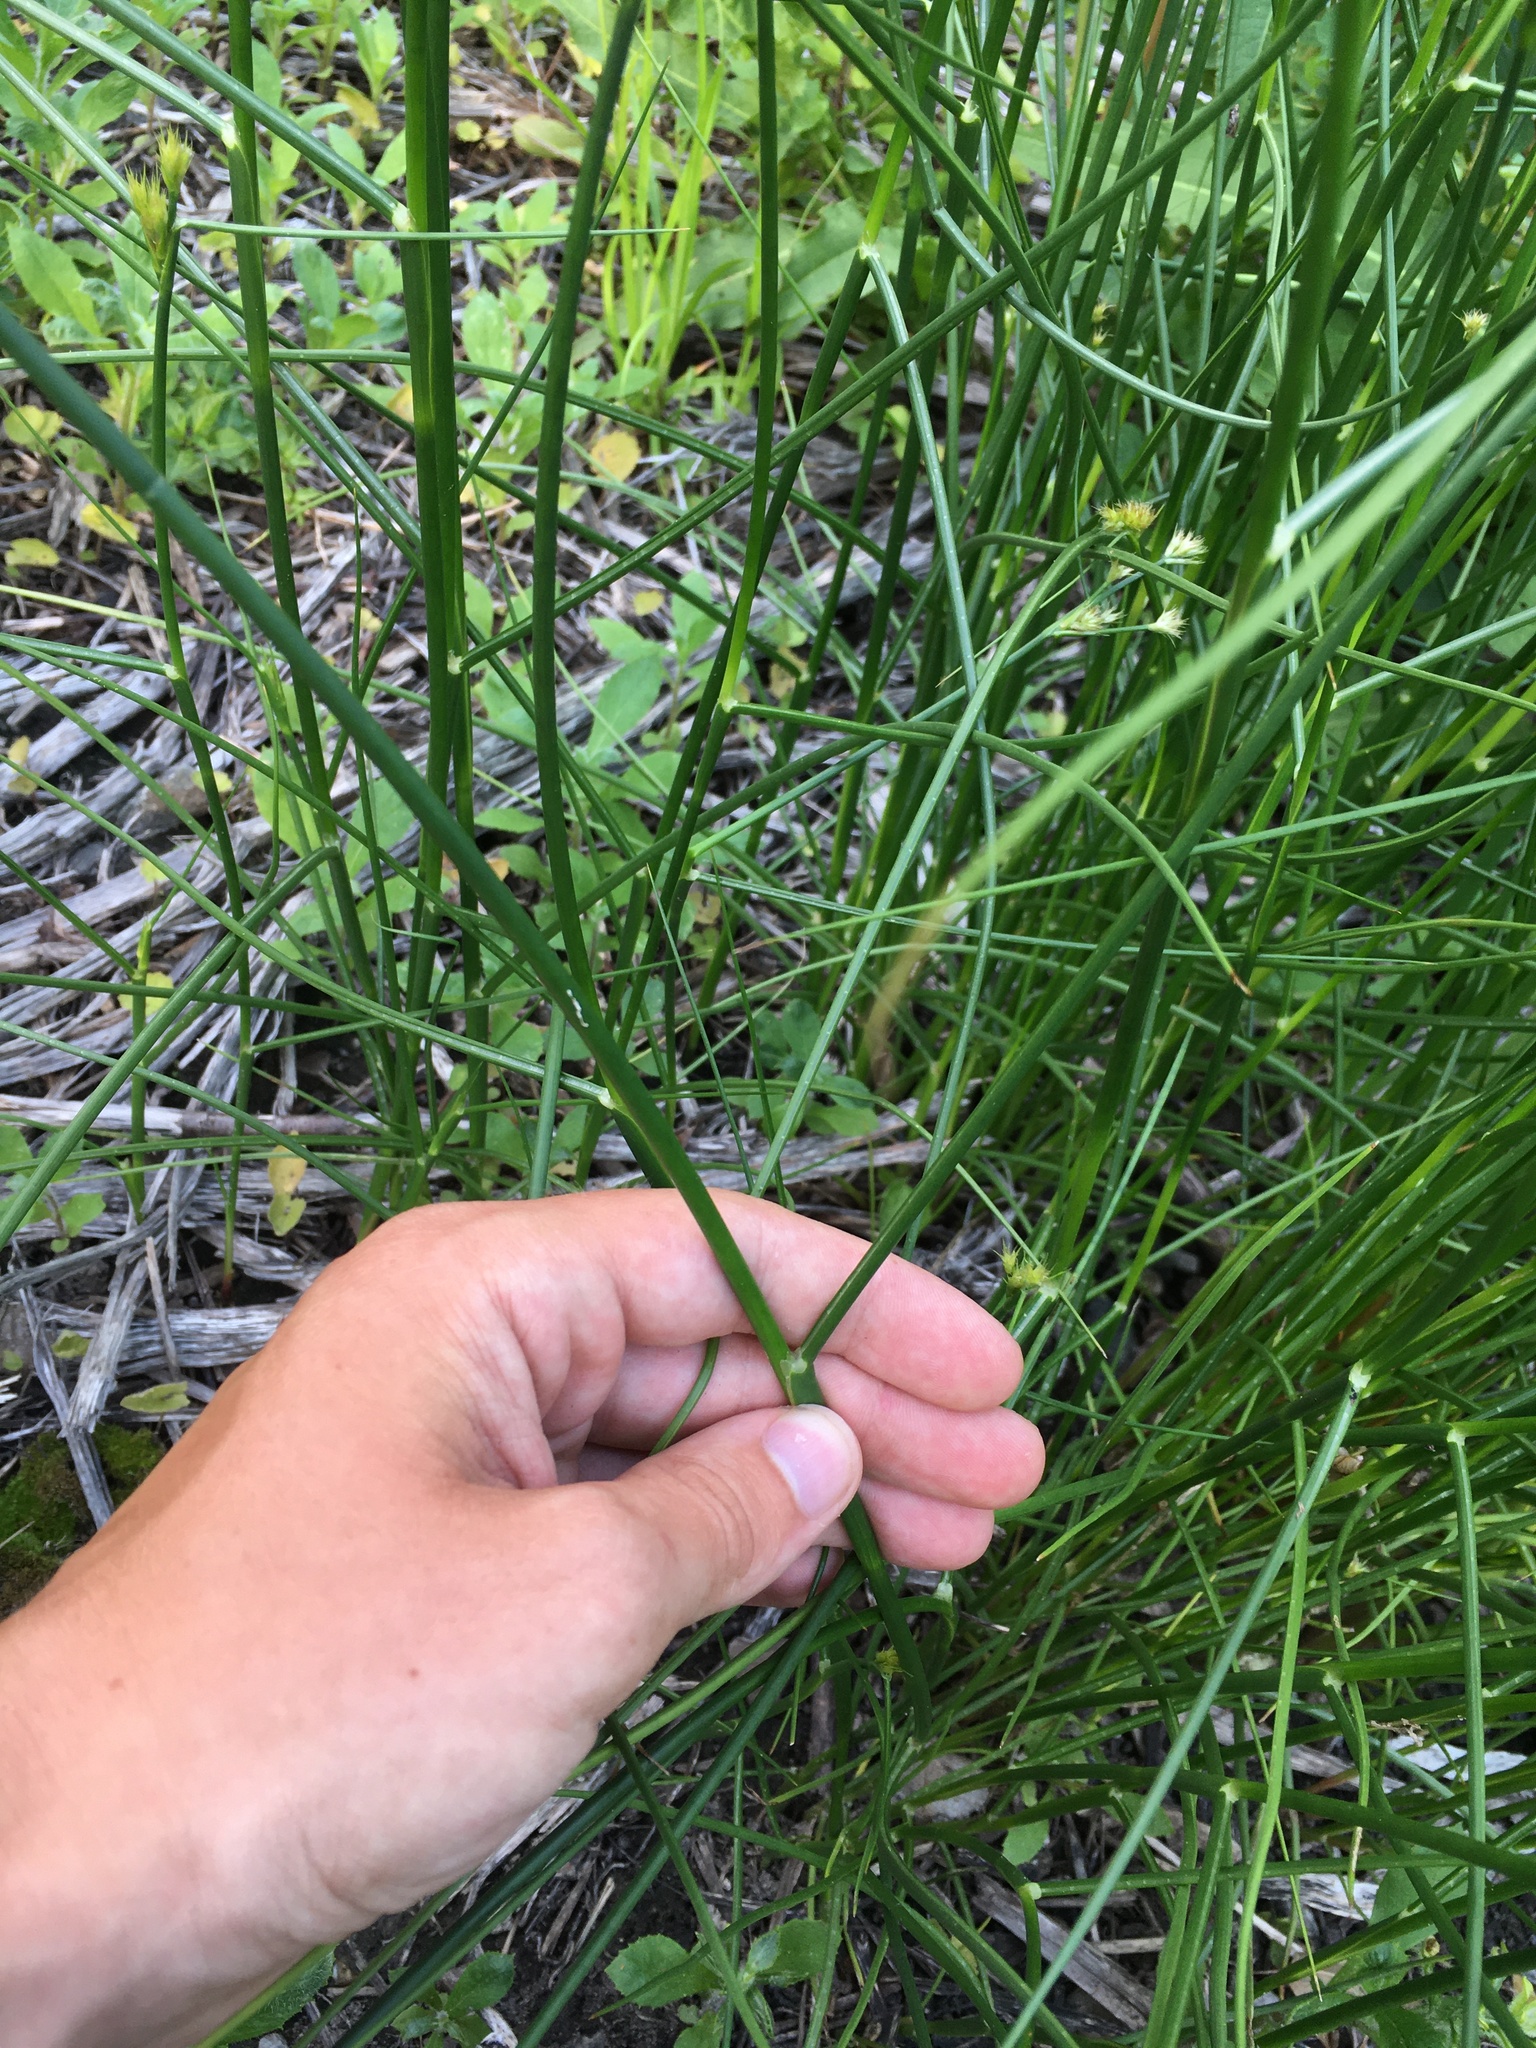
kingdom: Plantae
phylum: Tracheophyta
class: Liliopsida
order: Poales
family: Juncaceae
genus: Juncus
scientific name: Juncus canadensis
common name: Canada rush
